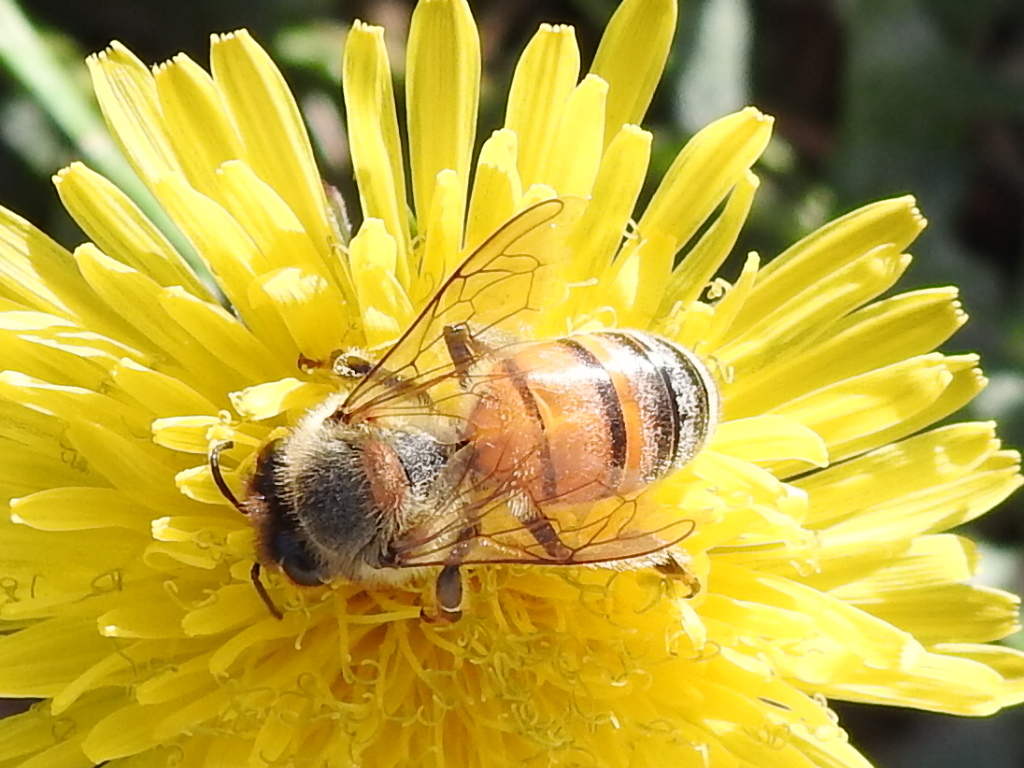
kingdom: Animalia
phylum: Arthropoda
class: Insecta
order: Hymenoptera
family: Apidae
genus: Apis
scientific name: Apis mellifera
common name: Honey bee
